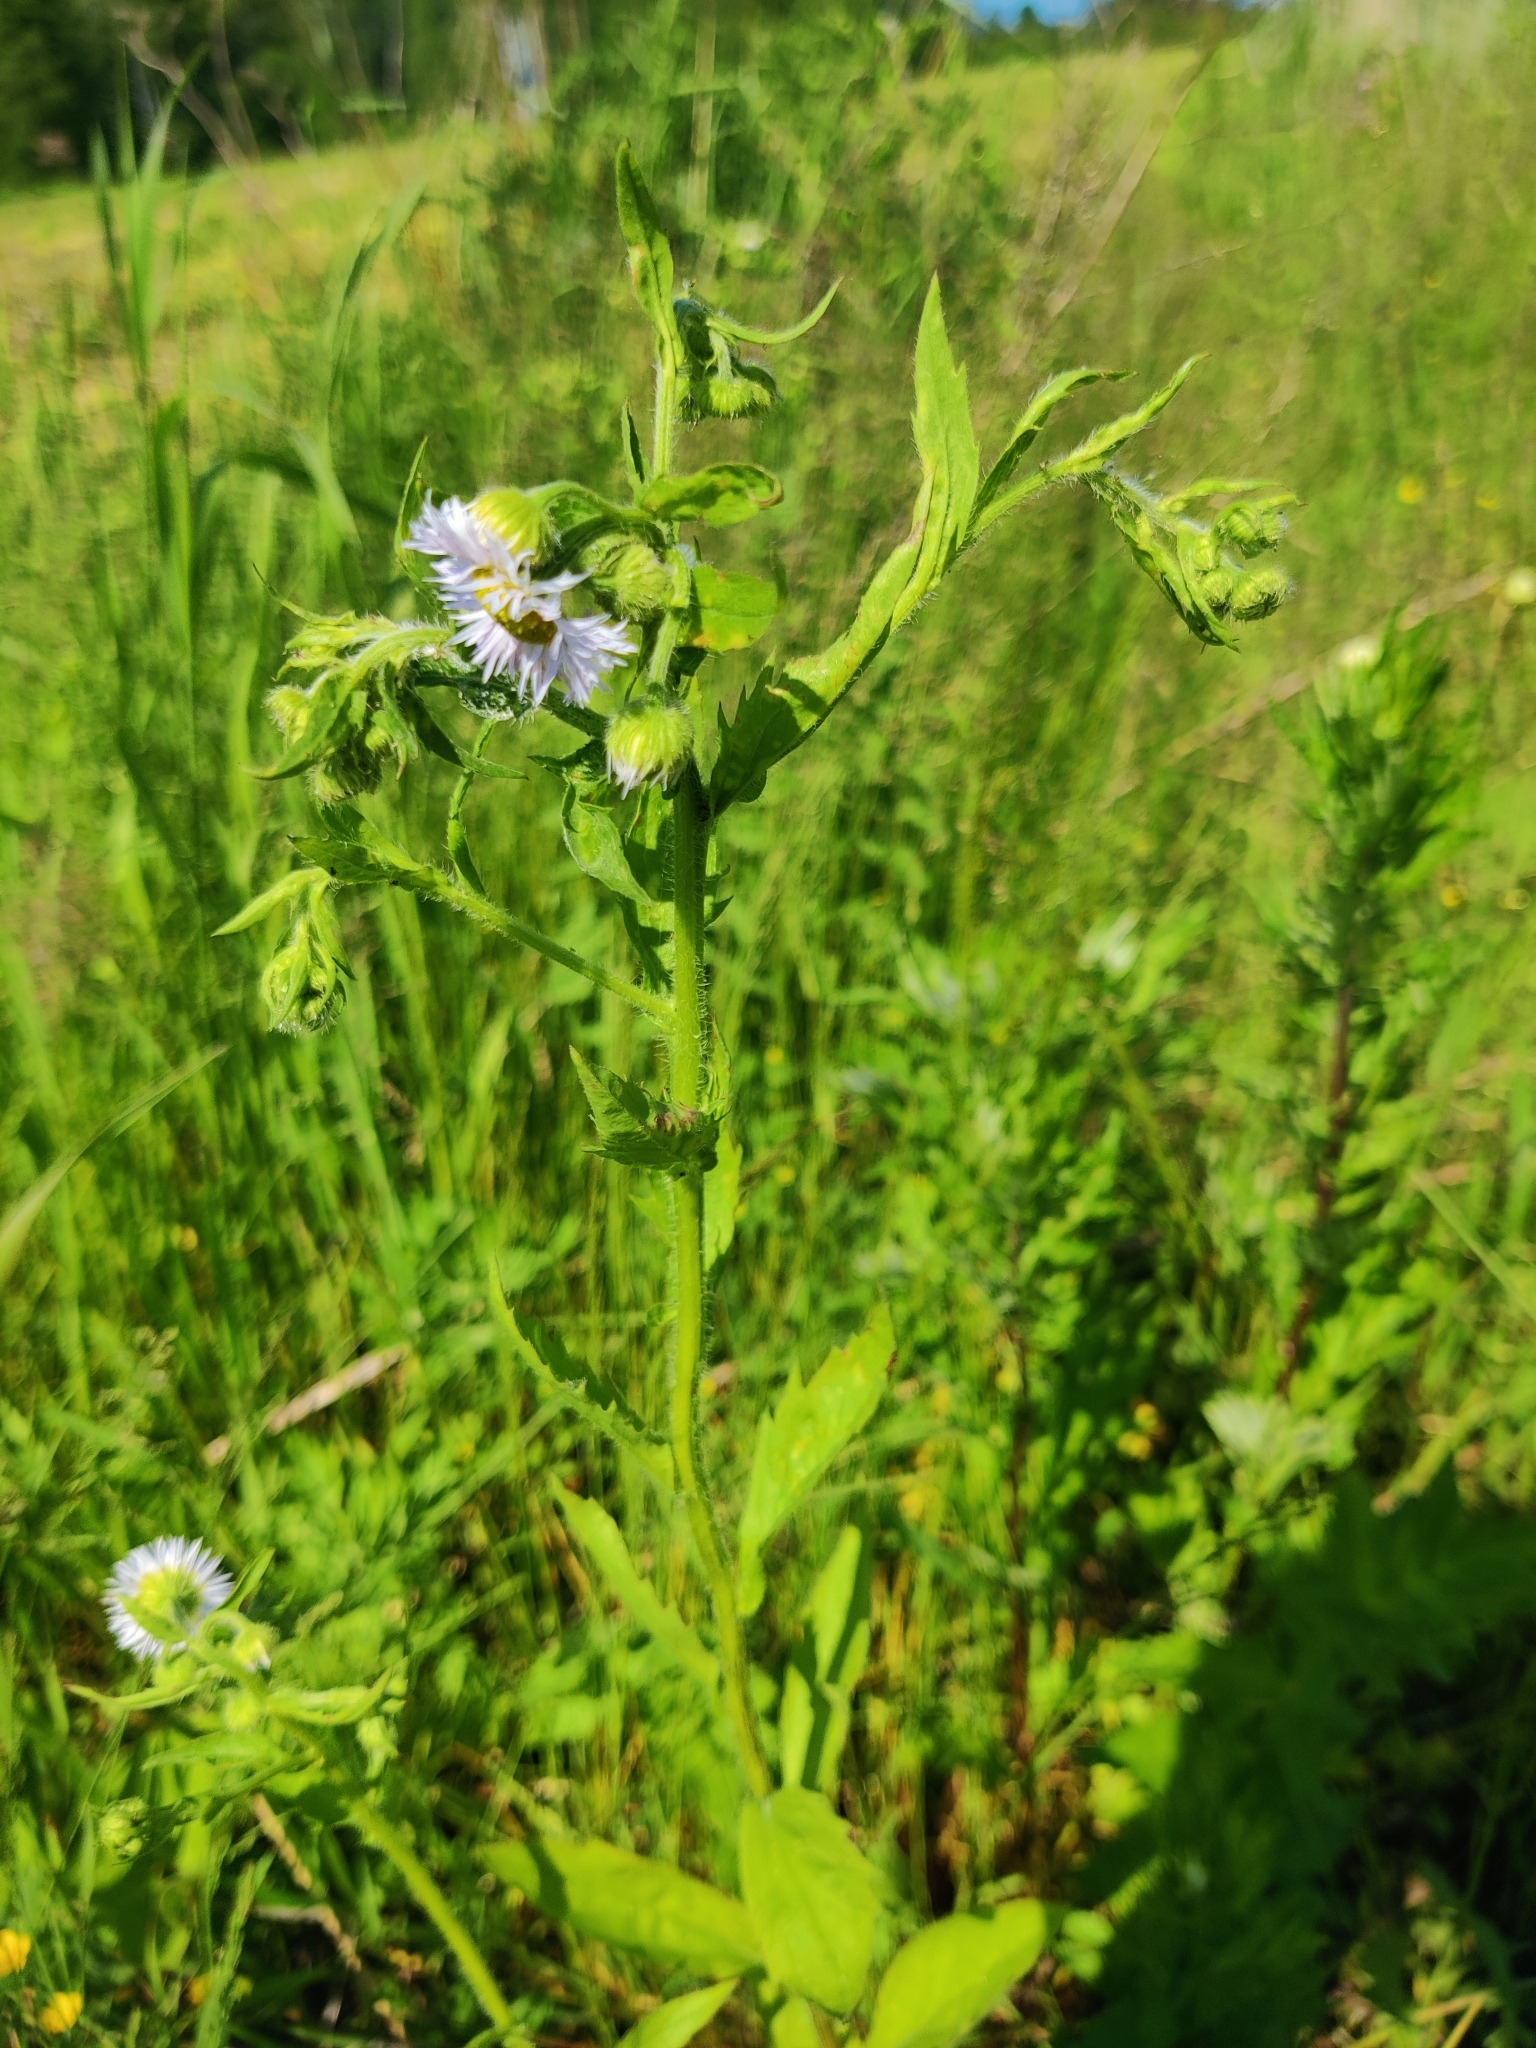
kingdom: Plantae
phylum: Tracheophyta
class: Magnoliopsida
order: Asterales
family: Asteraceae
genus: Erigeron
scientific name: Erigeron annuus
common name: Tall fleabane
